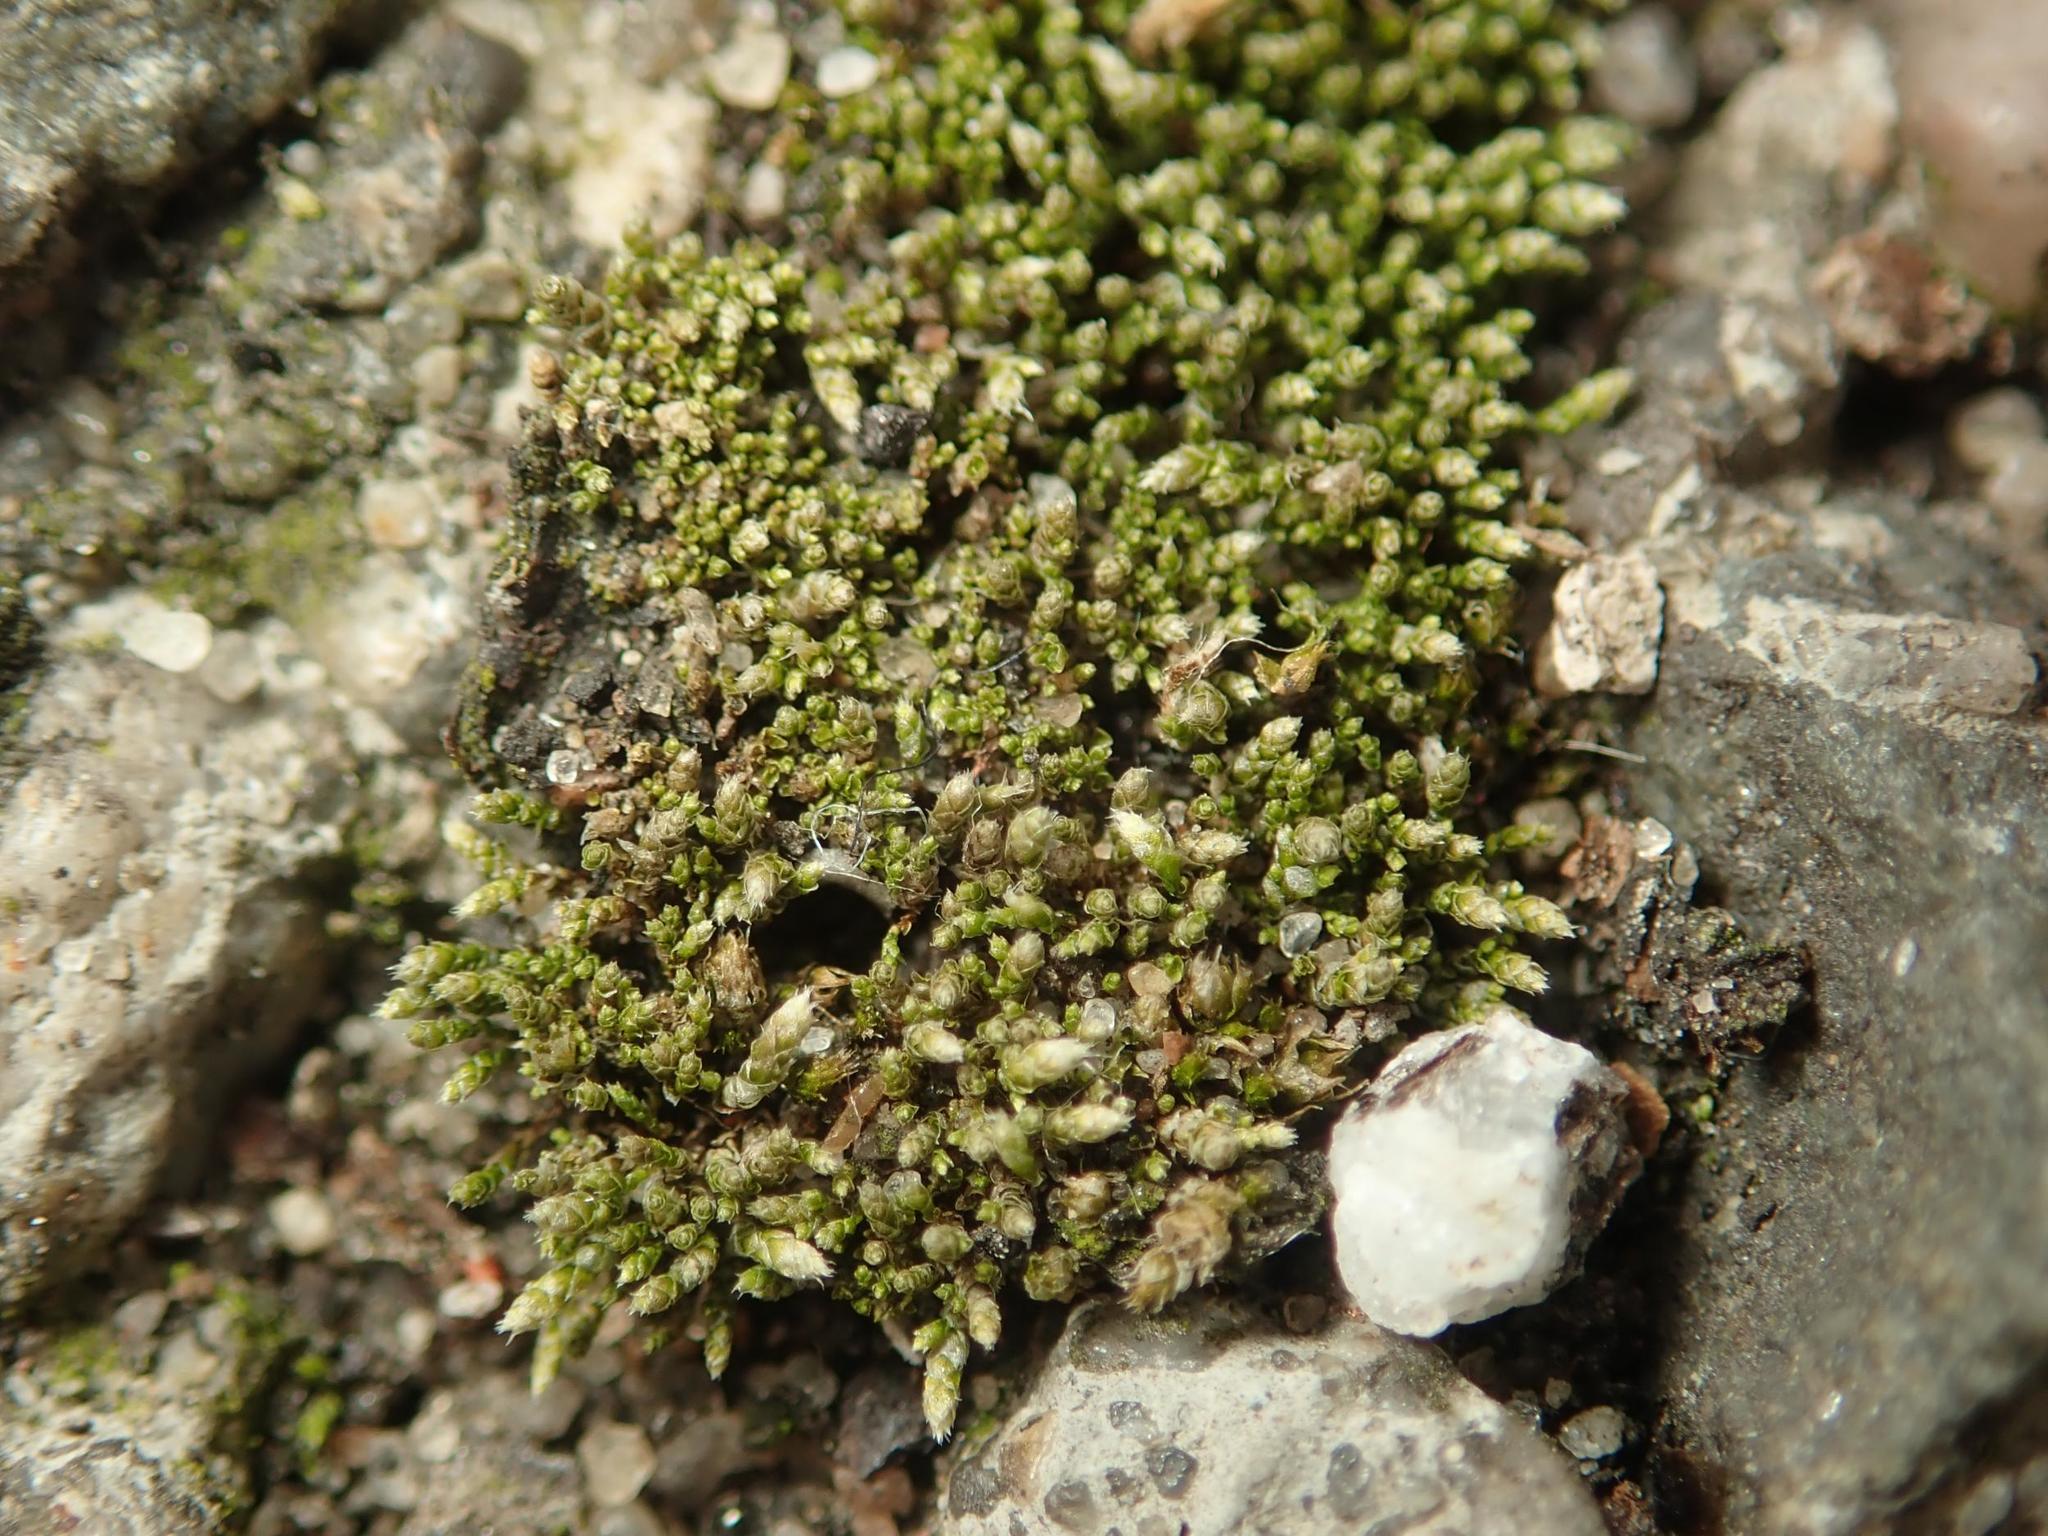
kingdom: Plantae
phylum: Bryophyta
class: Bryopsida
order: Bryales
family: Bryaceae
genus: Bryum
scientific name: Bryum argenteum
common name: Silver-moss
